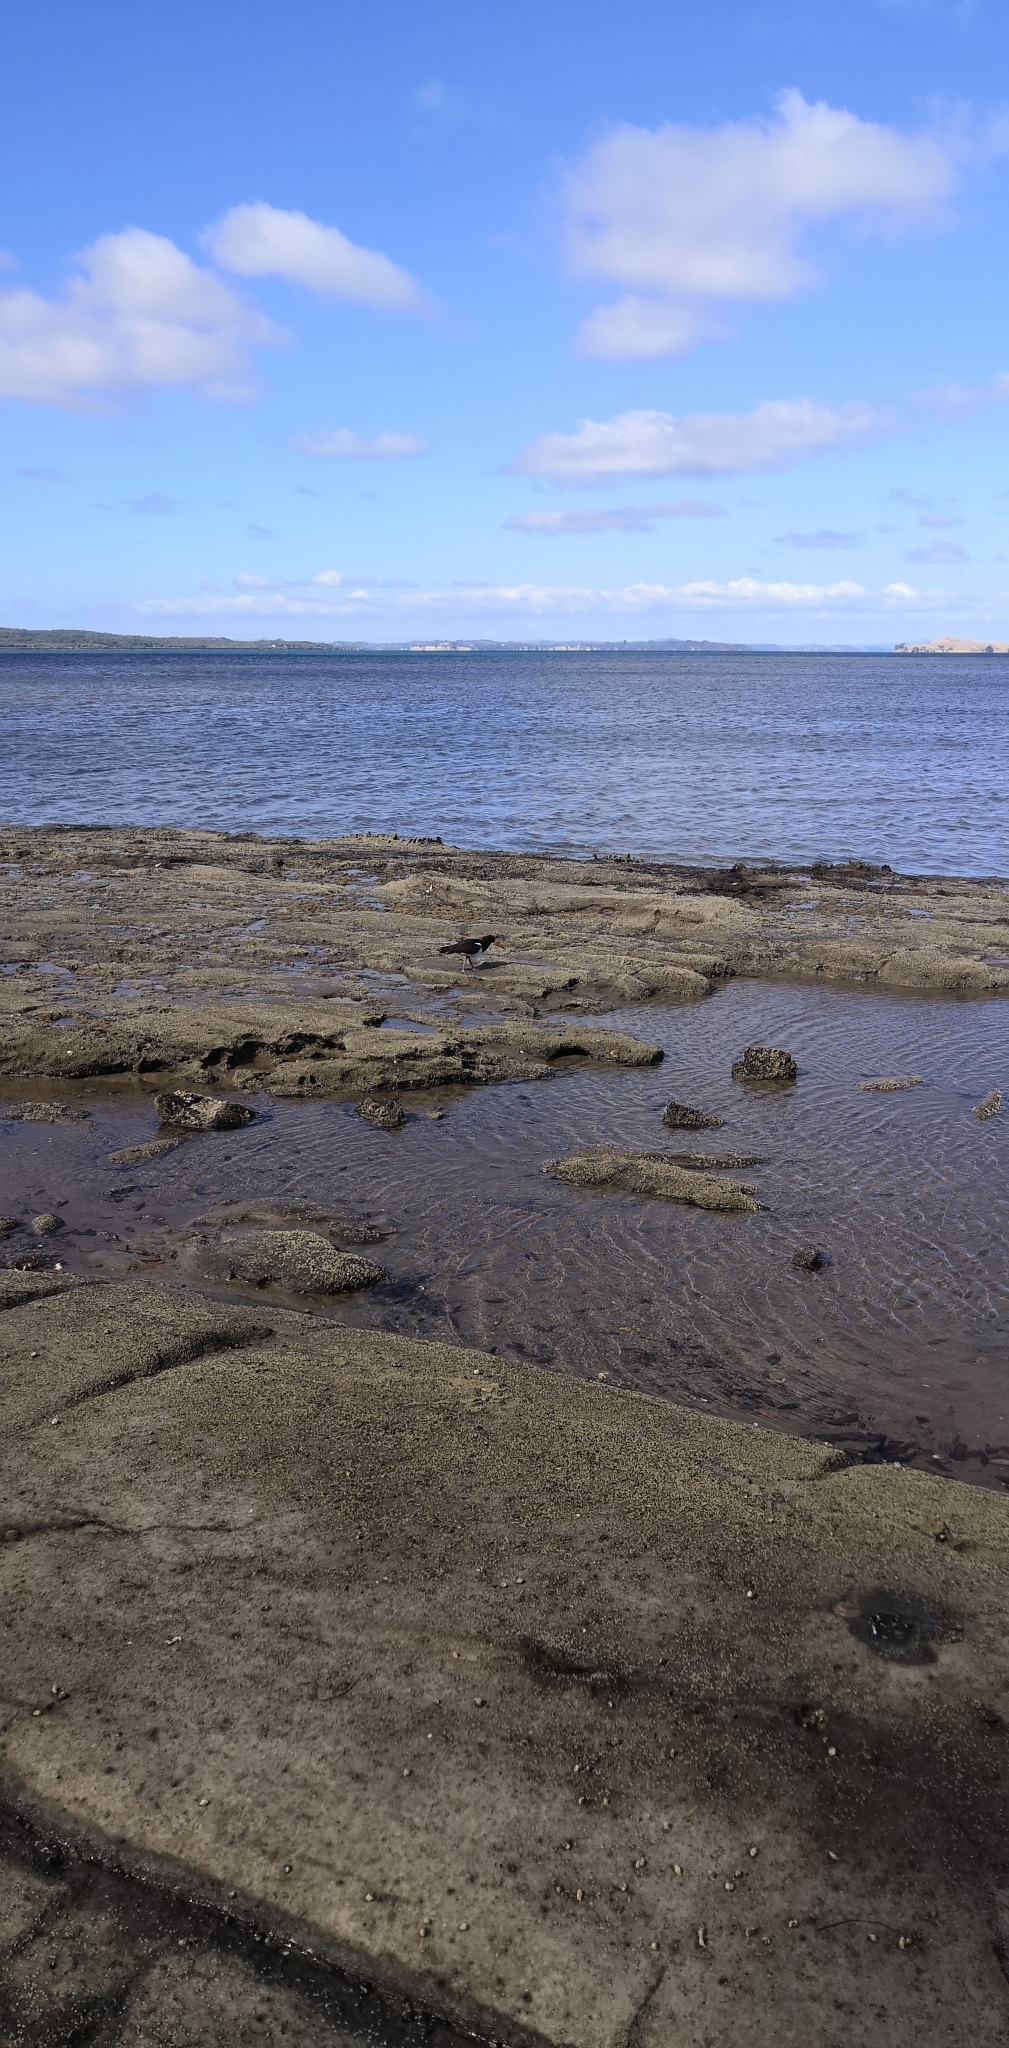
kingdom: Animalia
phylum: Chordata
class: Aves
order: Charadriiformes
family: Haematopodidae
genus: Haematopus
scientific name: Haematopus finschi
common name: South island oystercatcher
